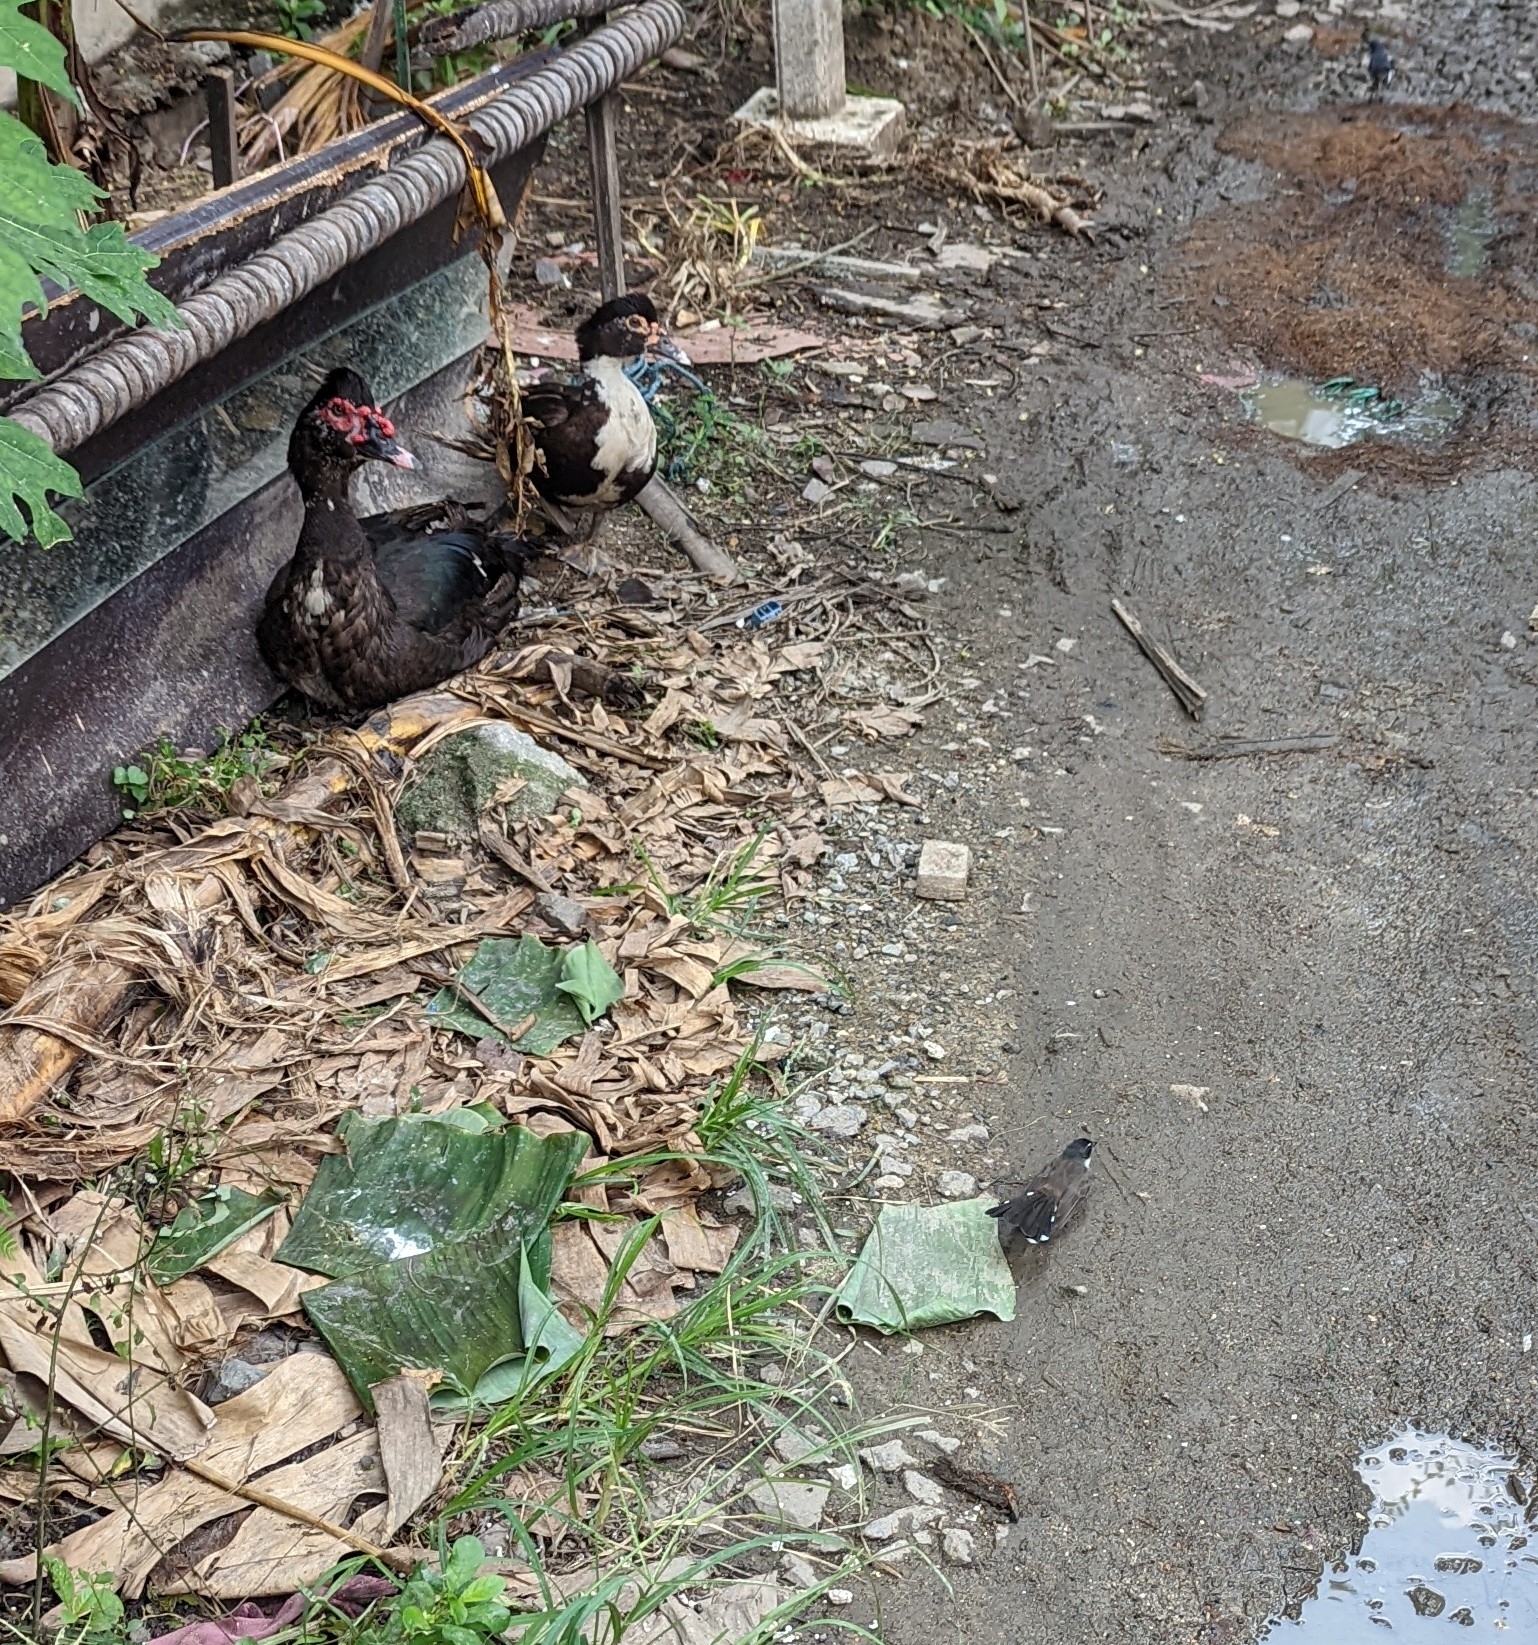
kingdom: Animalia
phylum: Chordata
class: Aves
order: Anseriformes
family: Anatidae
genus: Cairina
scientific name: Cairina moschata
